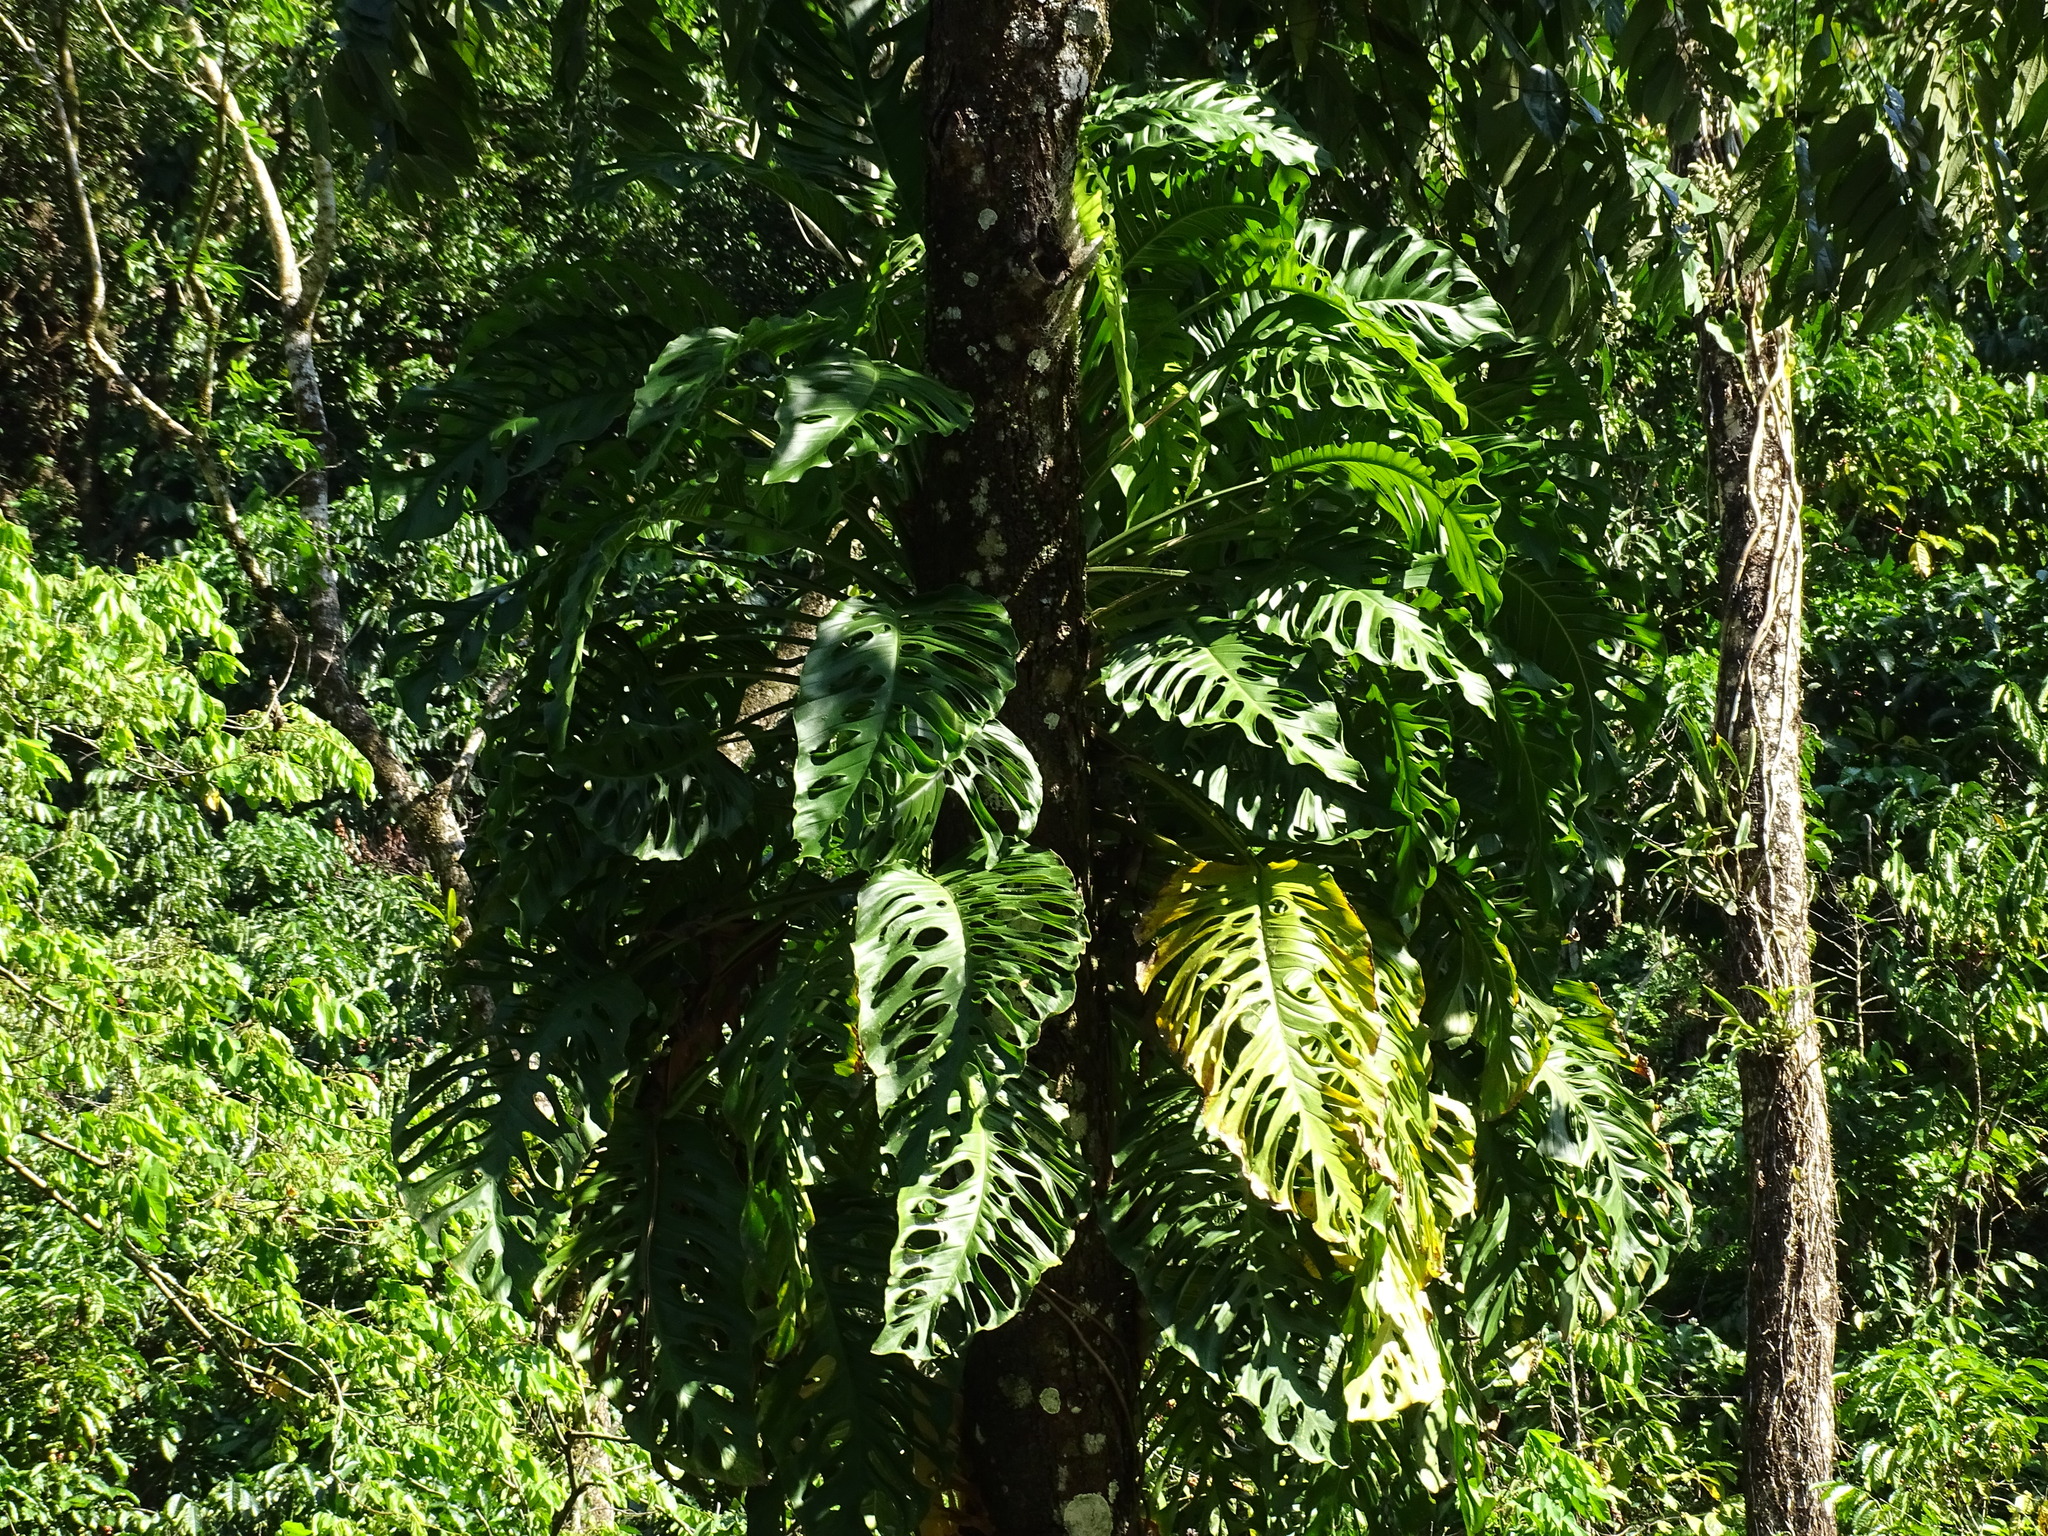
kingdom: Plantae
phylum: Tracheophyta
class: Liliopsida
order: Alismatales
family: Araceae
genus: Monstera
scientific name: Monstera acuminata
